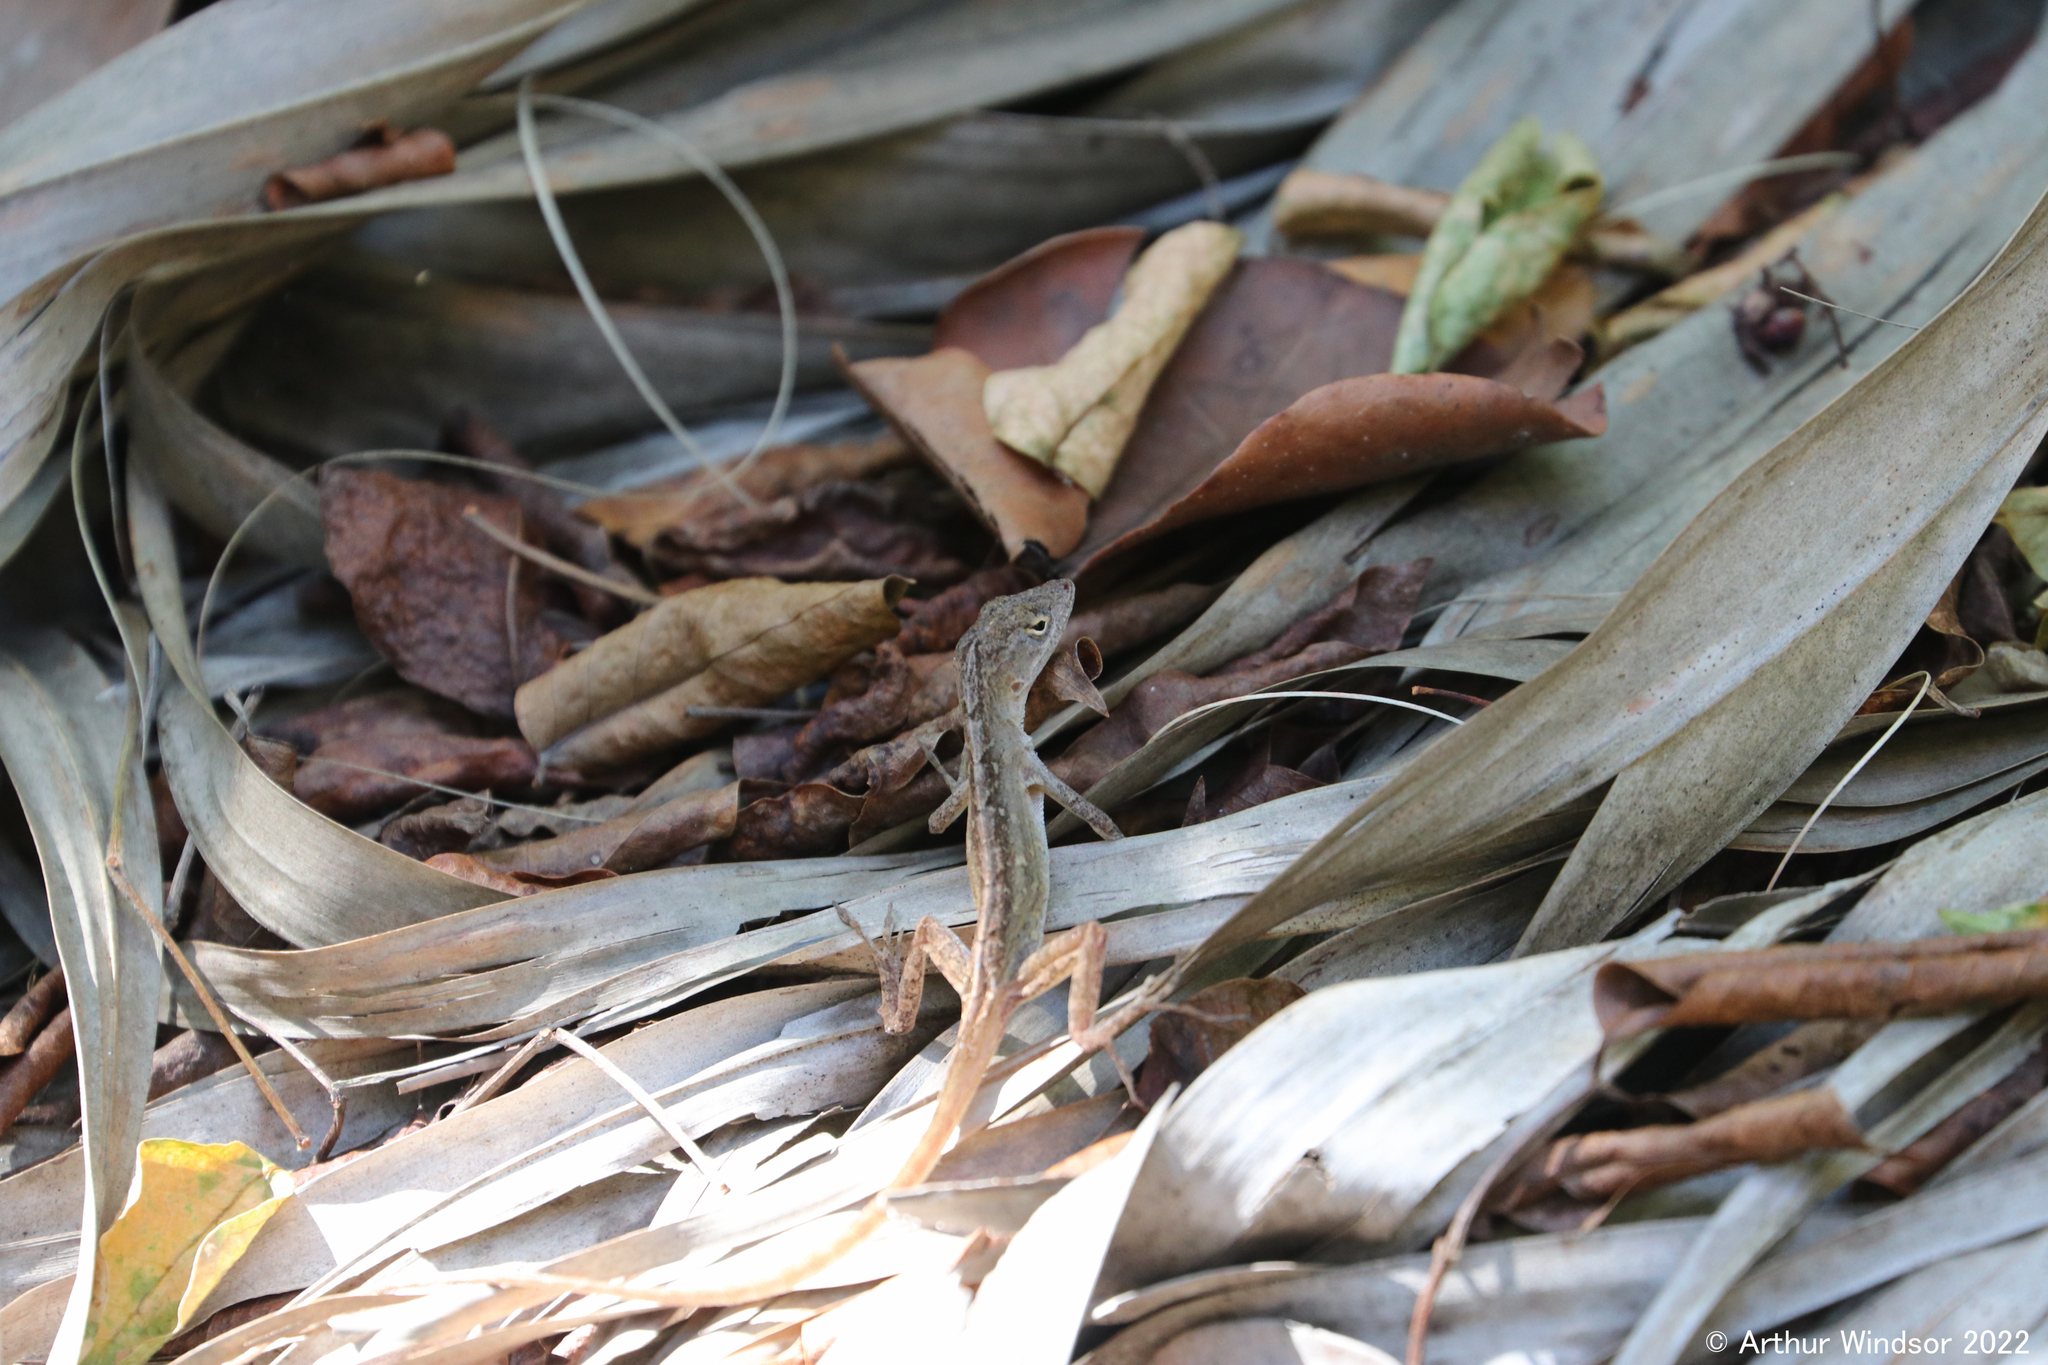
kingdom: Animalia
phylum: Chordata
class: Squamata
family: Dactyloidae
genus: Anolis
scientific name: Anolis sagrei
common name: Brown anole
